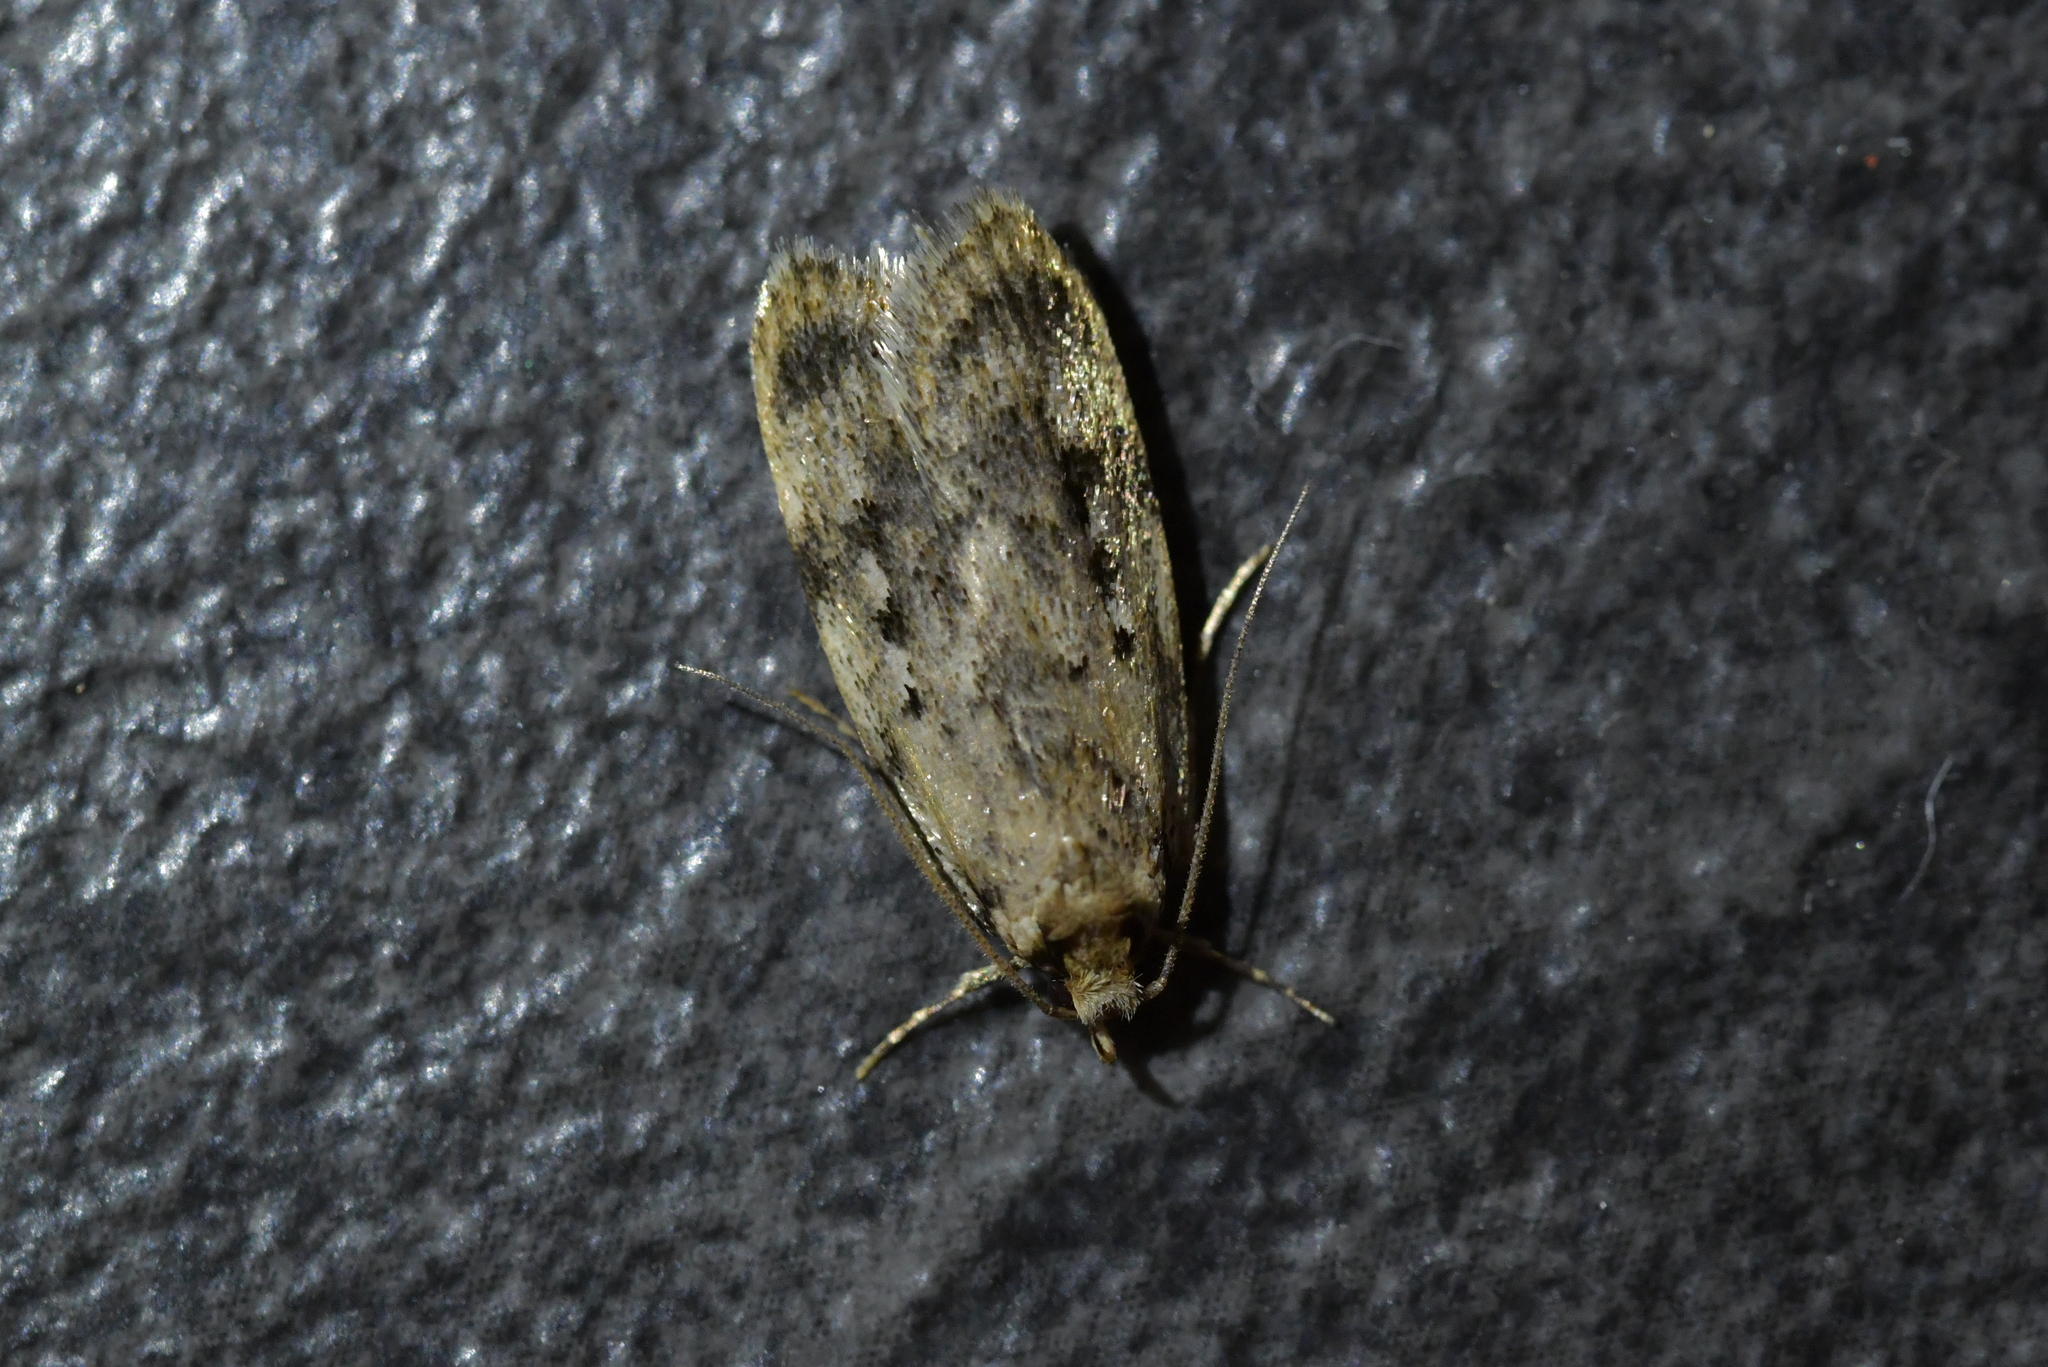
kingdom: Animalia
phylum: Arthropoda
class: Insecta
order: Lepidoptera
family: Oecophoridae
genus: Barea
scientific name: Barea exarcha
